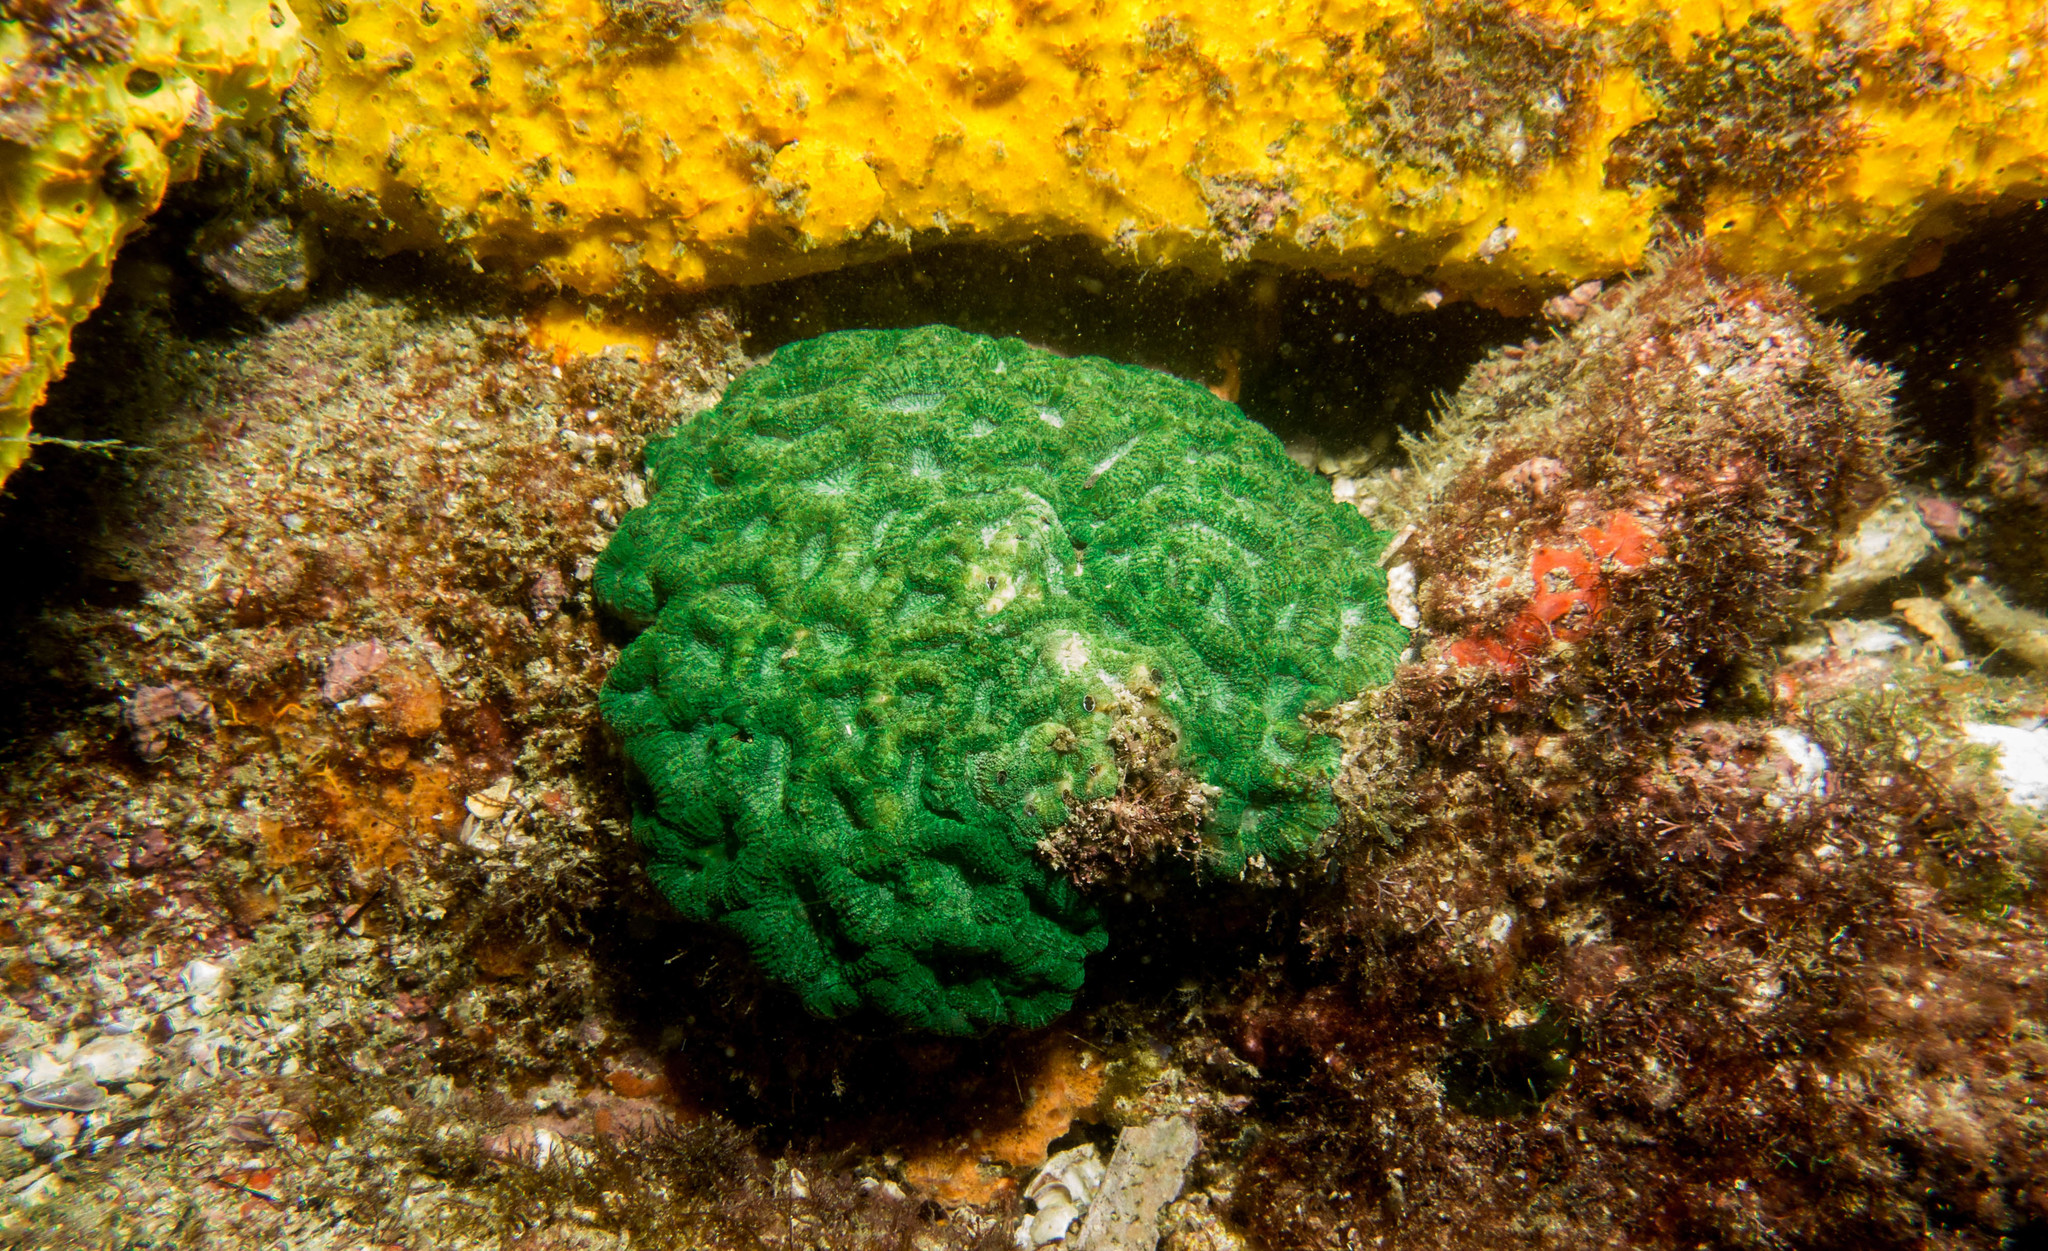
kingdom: Animalia
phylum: Cnidaria
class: Anthozoa
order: Scleractinia
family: Faviidae
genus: Mussismilia
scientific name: Mussismilia hispida
